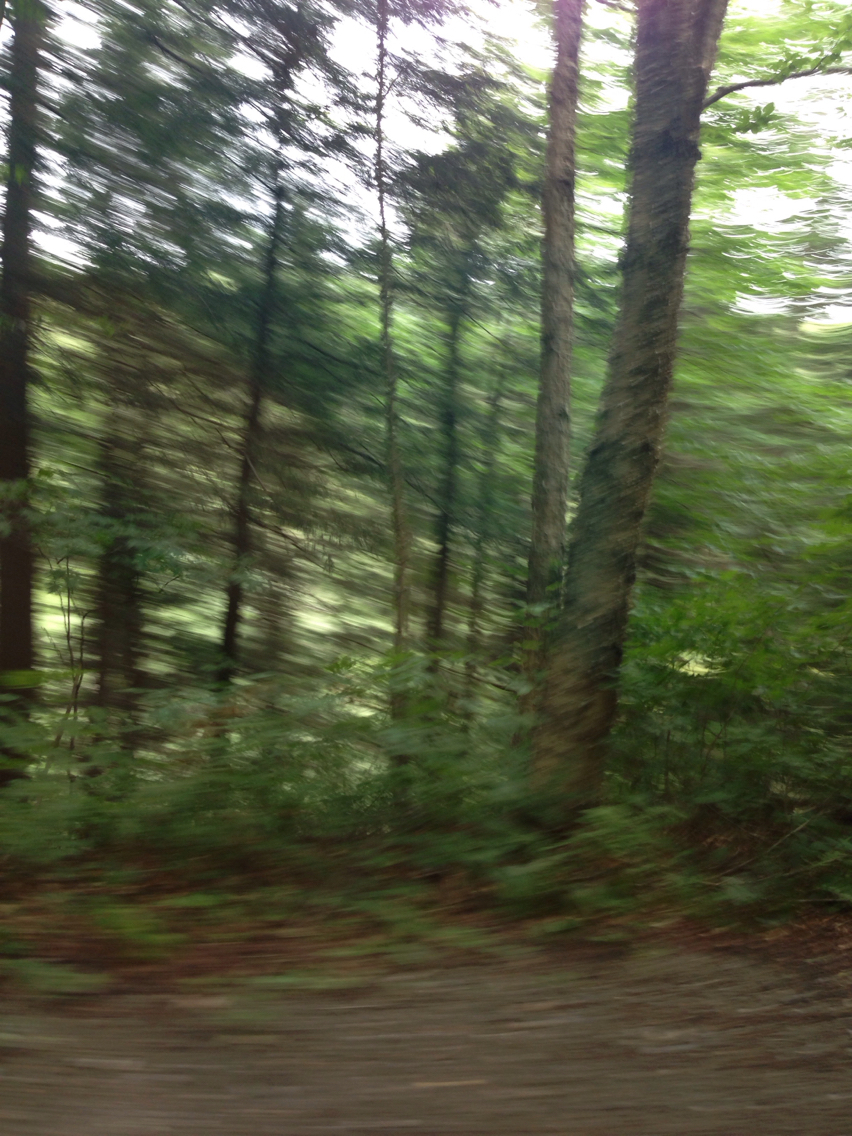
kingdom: Plantae
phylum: Tracheophyta
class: Magnoliopsida
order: Fagales
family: Betulaceae
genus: Betula
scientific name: Betula alleghaniensis
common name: Yellow birch
